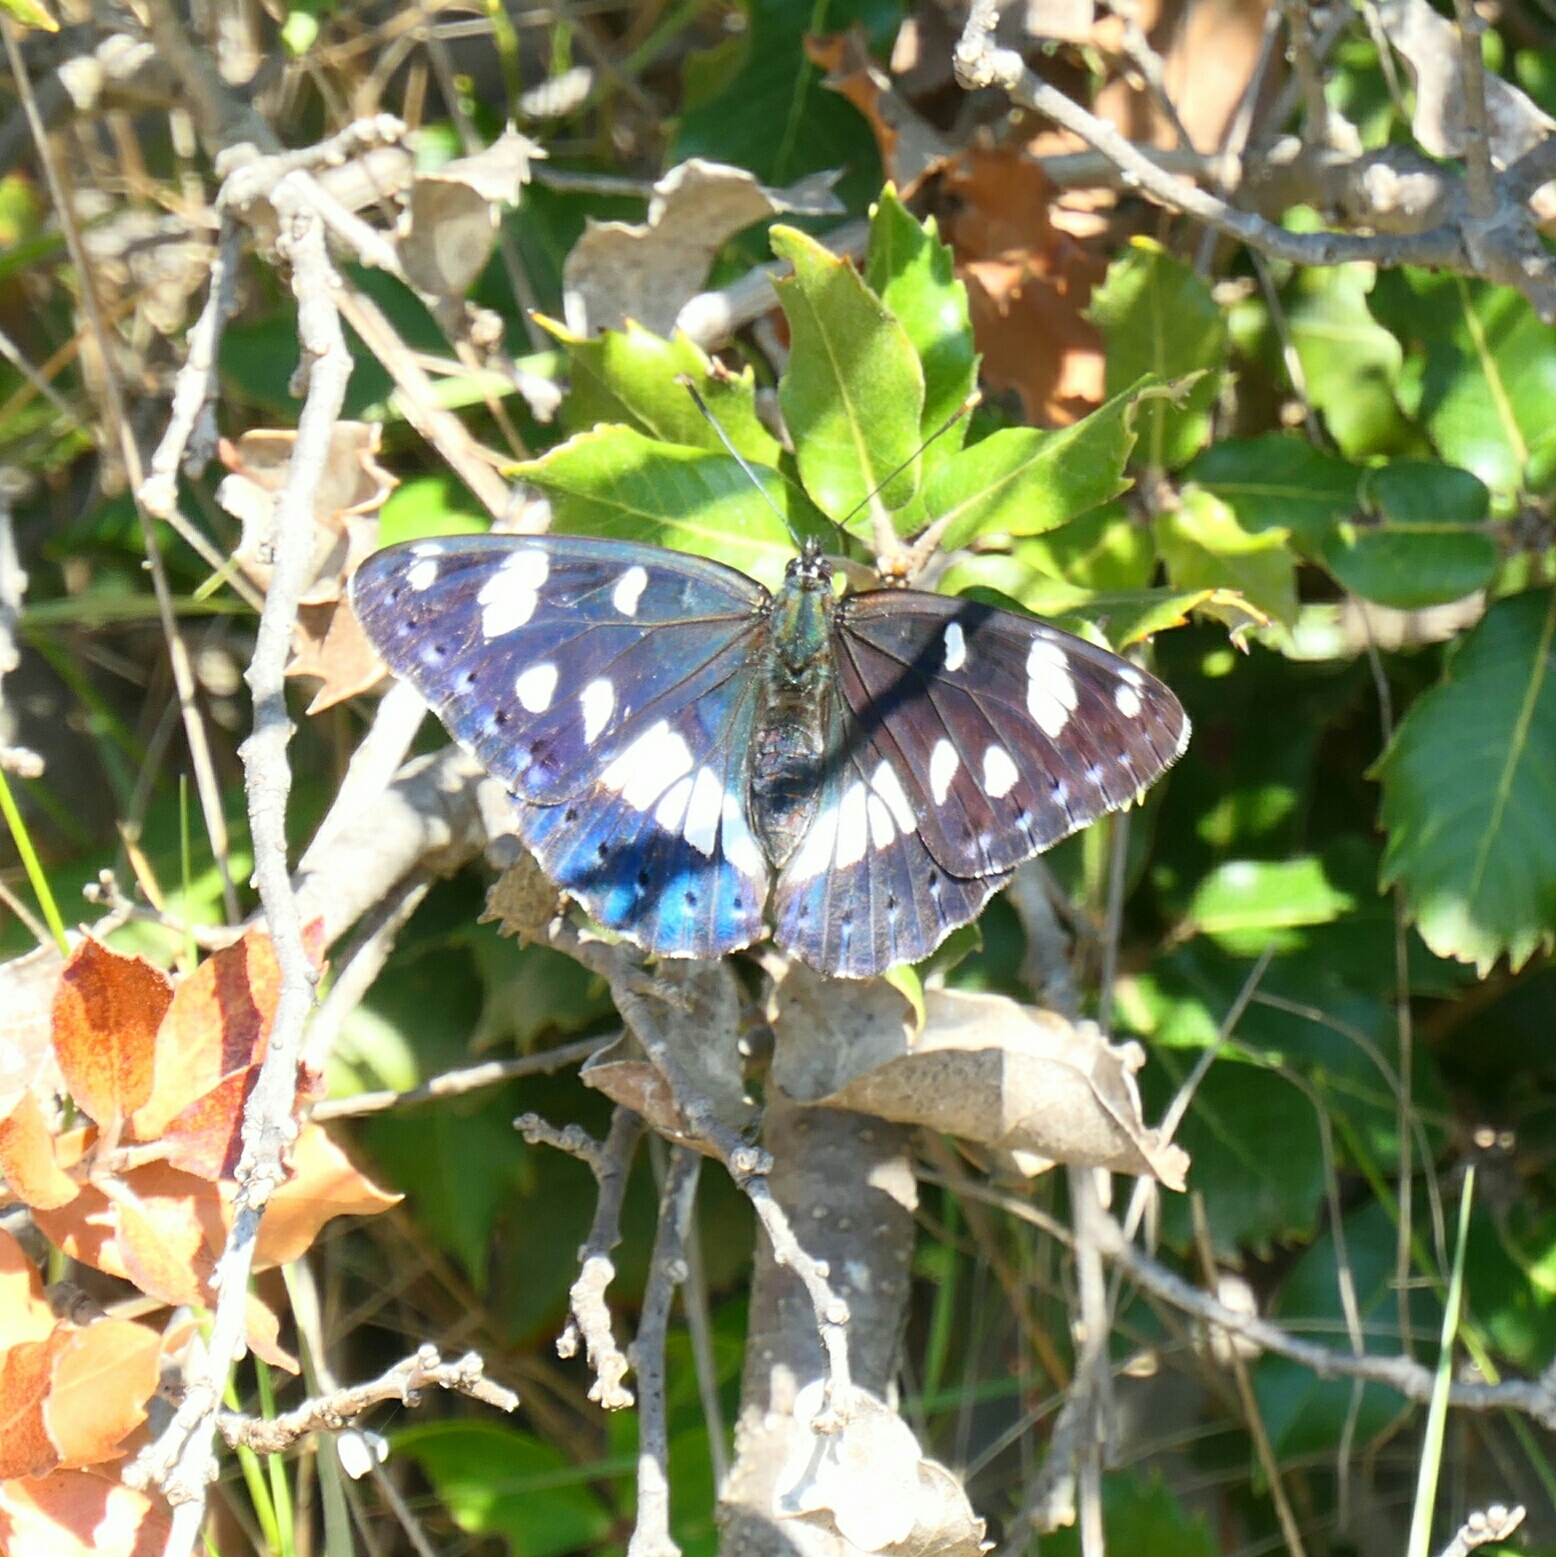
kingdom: Animalia
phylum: Arthropoda
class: Insecta
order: Lepidoptera
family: Nymphalidae
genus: Limenitis
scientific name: Limenitis reducta
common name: Southern white admiral
